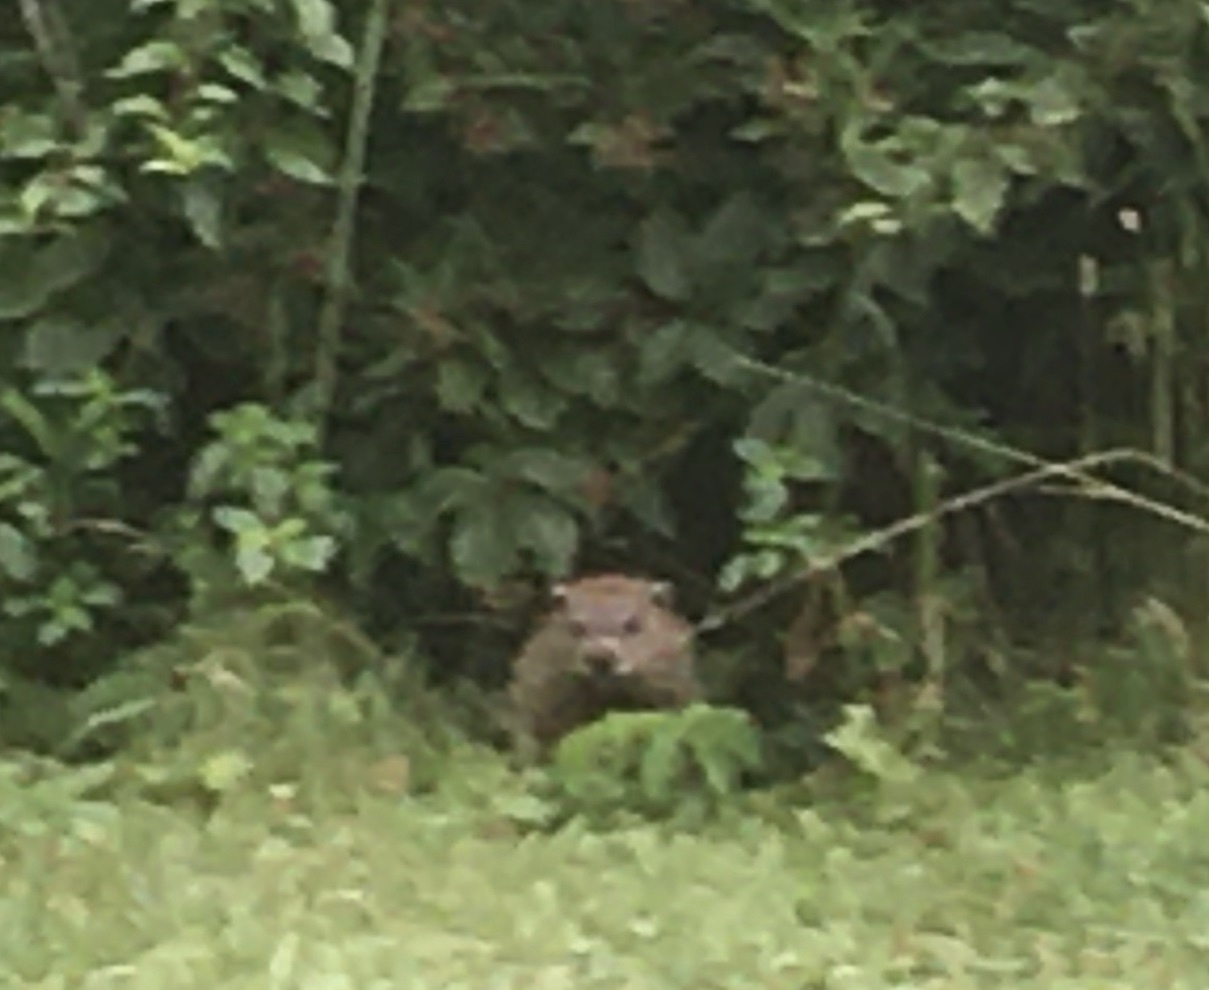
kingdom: Animalia
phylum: Chordata
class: Mammalia
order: Rodentia
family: Sciuridae
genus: Marmota
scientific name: Marmota monax
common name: Groundhog
